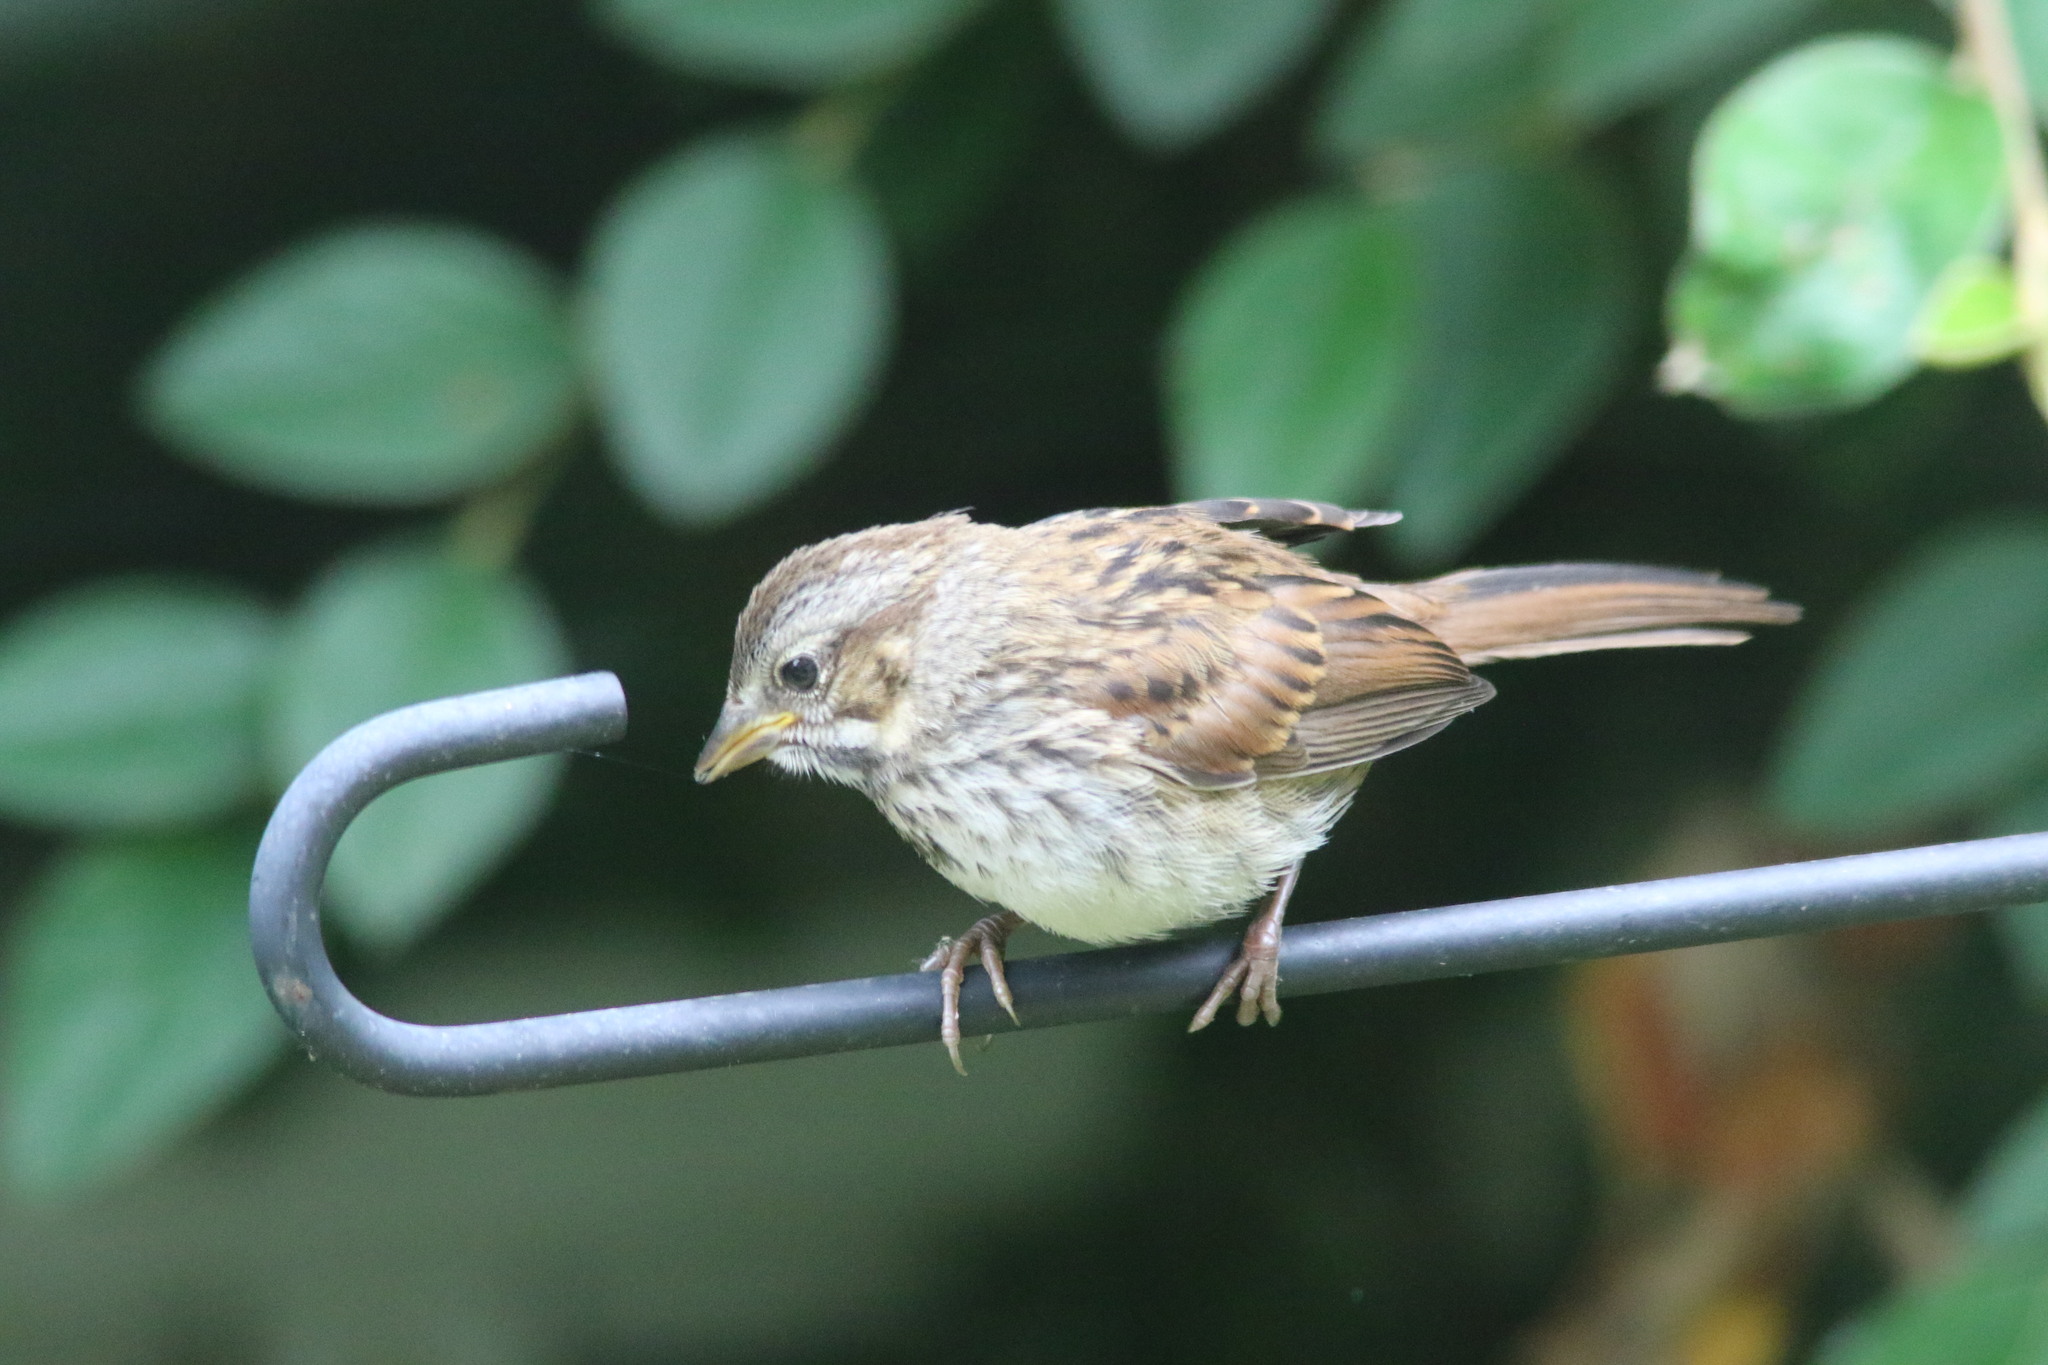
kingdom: Animalia
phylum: Chordata
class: Aves
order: Passeriformes
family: Passerellidae
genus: Melospiza
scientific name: Melospiza melodia
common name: Song sparrow
